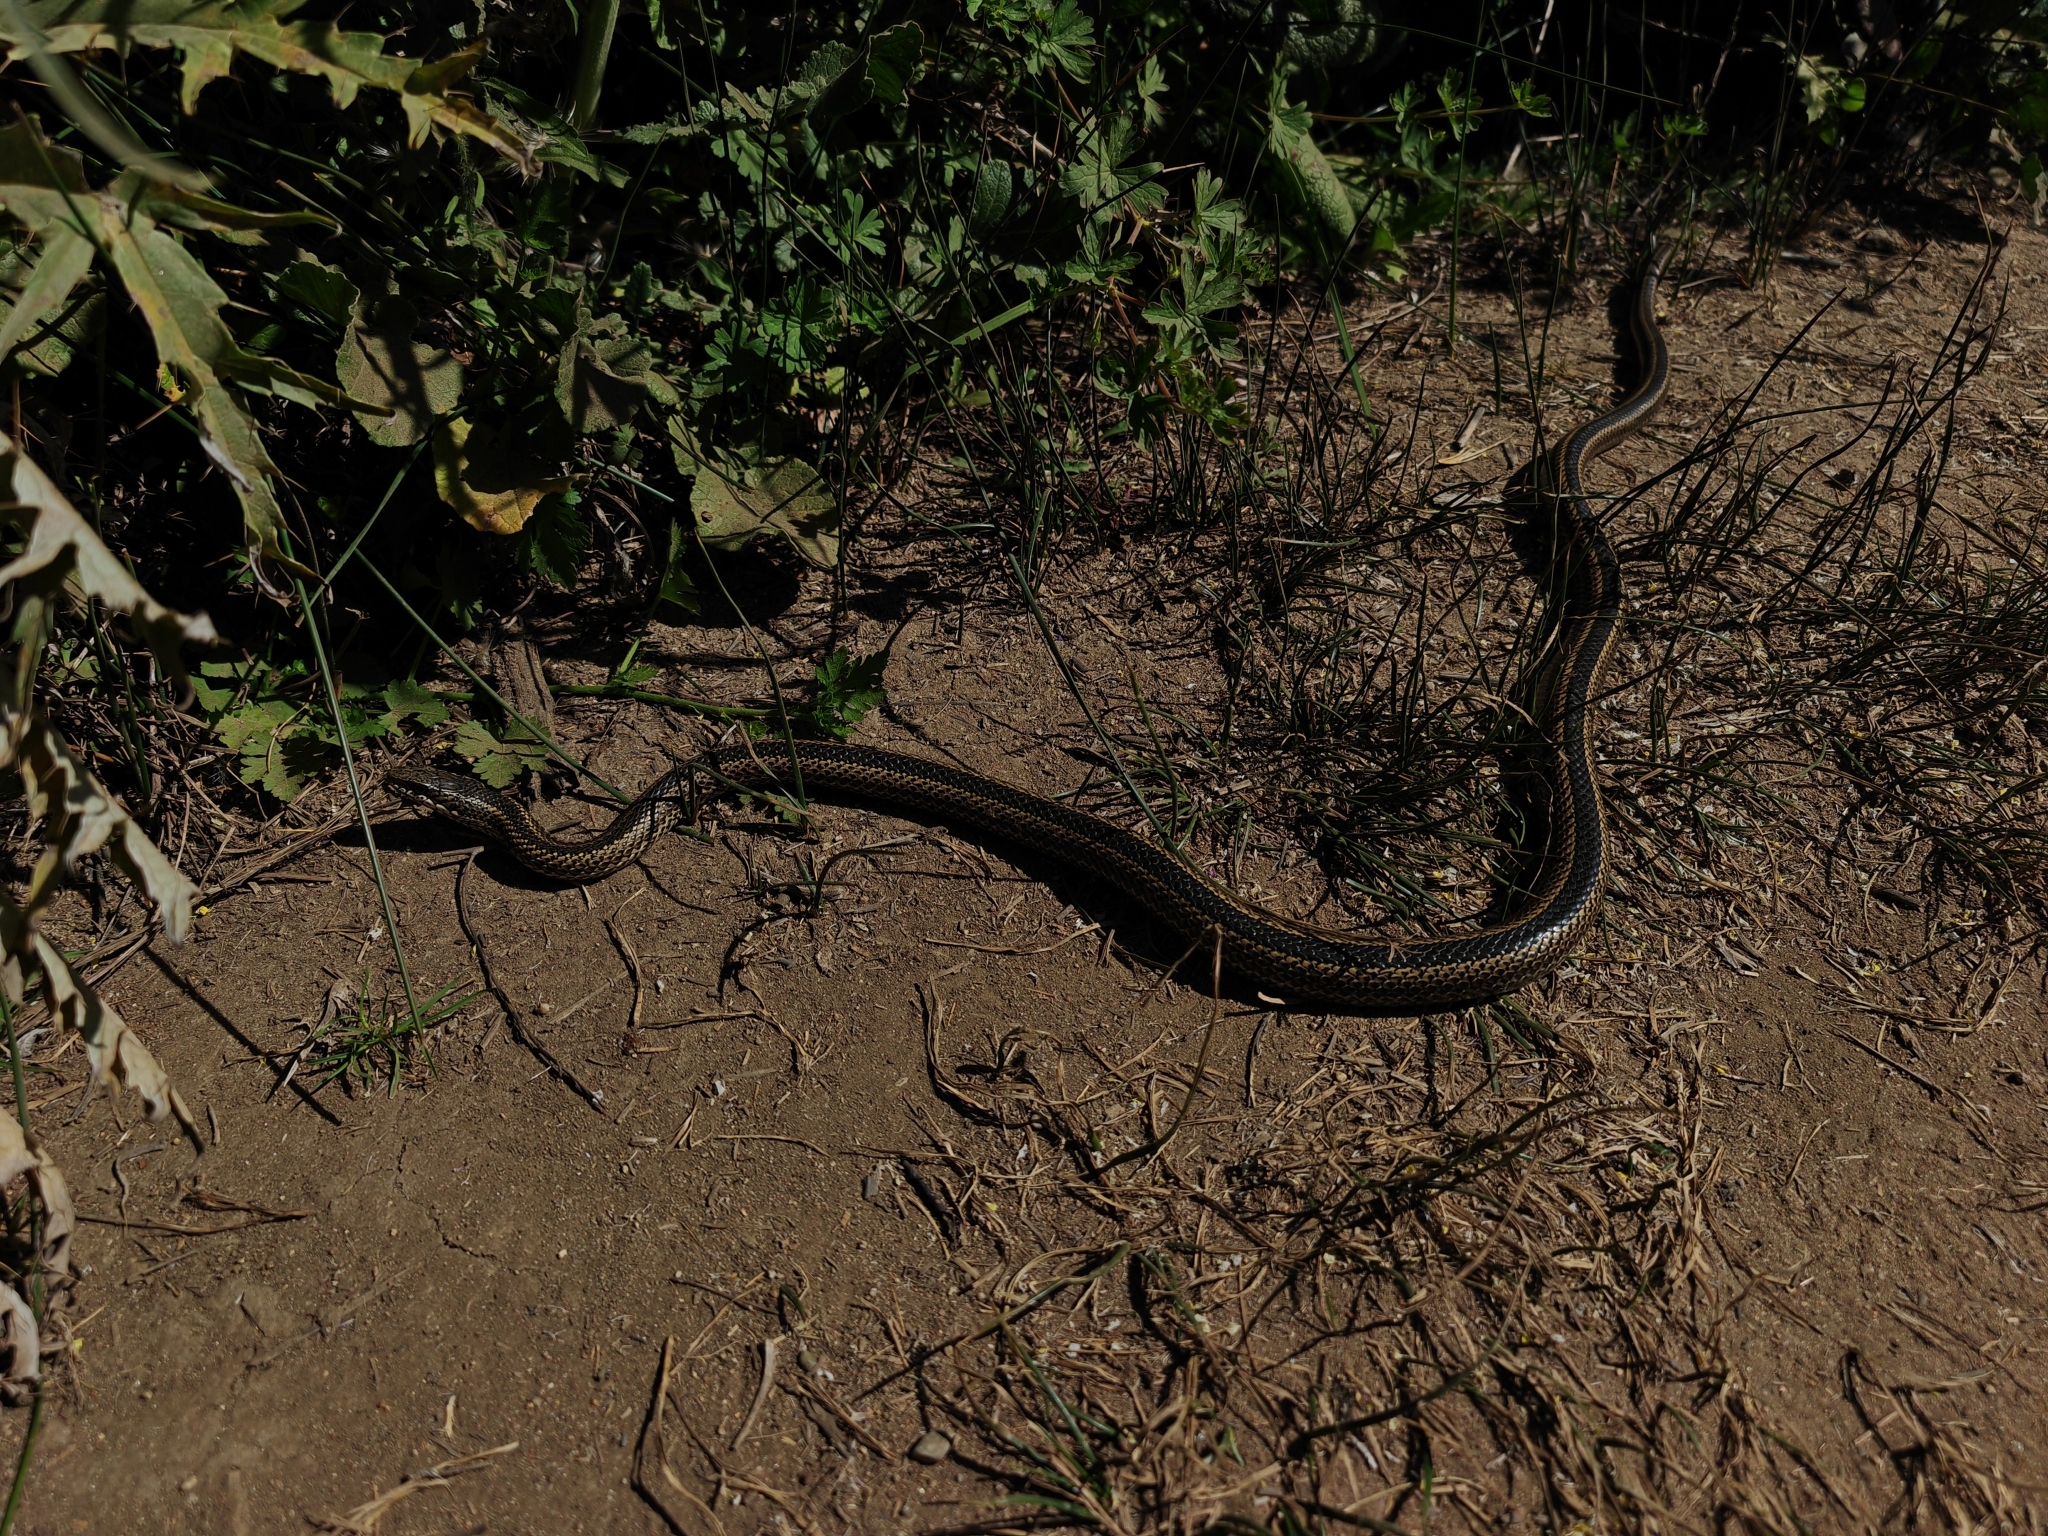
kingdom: Animalia
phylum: Chordata
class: Squamata
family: Colubridae
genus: Philodryas
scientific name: Philodryas chamissonis
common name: Chilean green racer
